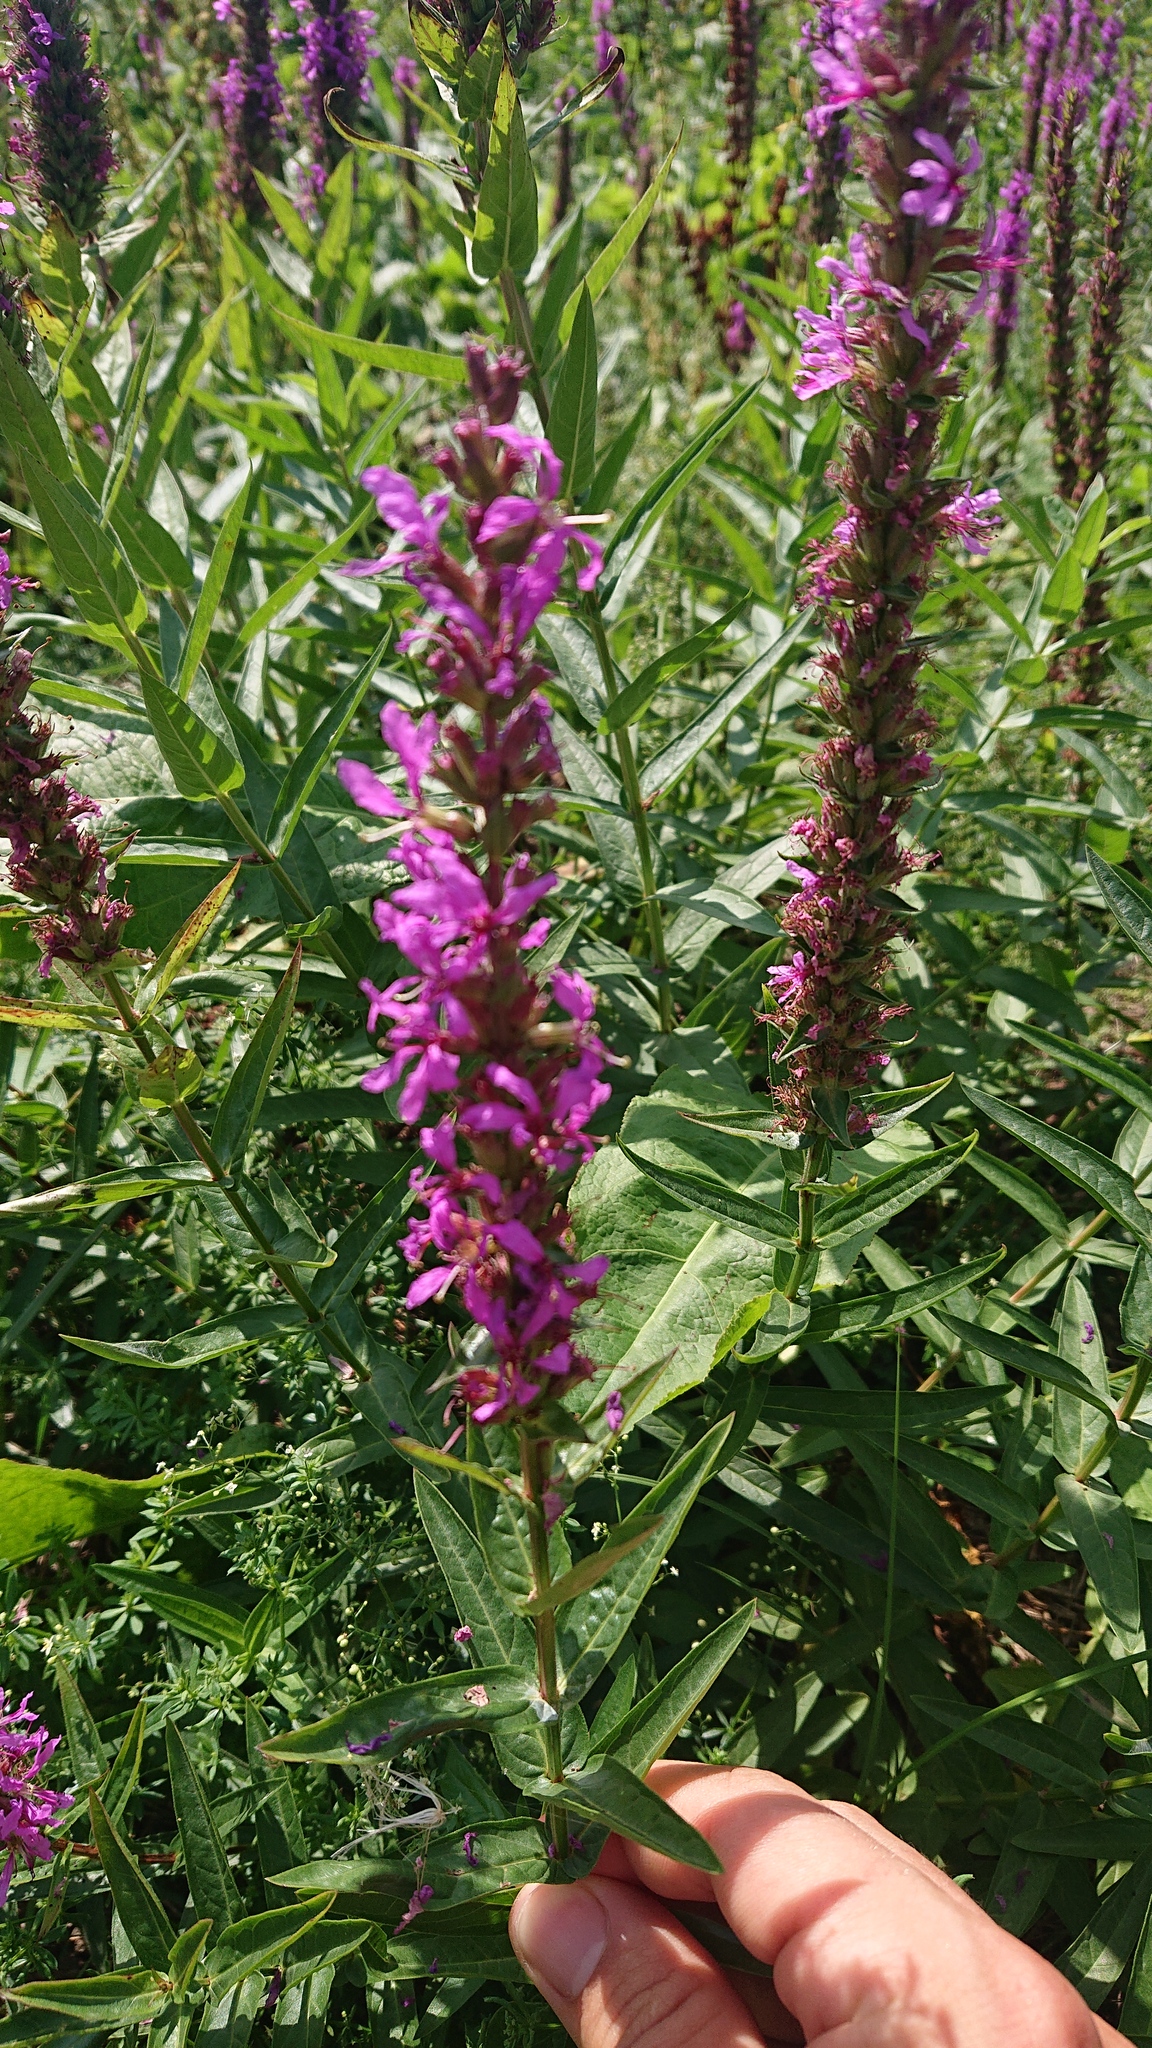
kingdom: Plantae
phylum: Tracheophyta
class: Magnoliopsida
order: Myrtales
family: Lythraceae
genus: Lythrum
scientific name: Lythrum salicaria
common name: Purple loosestrife
